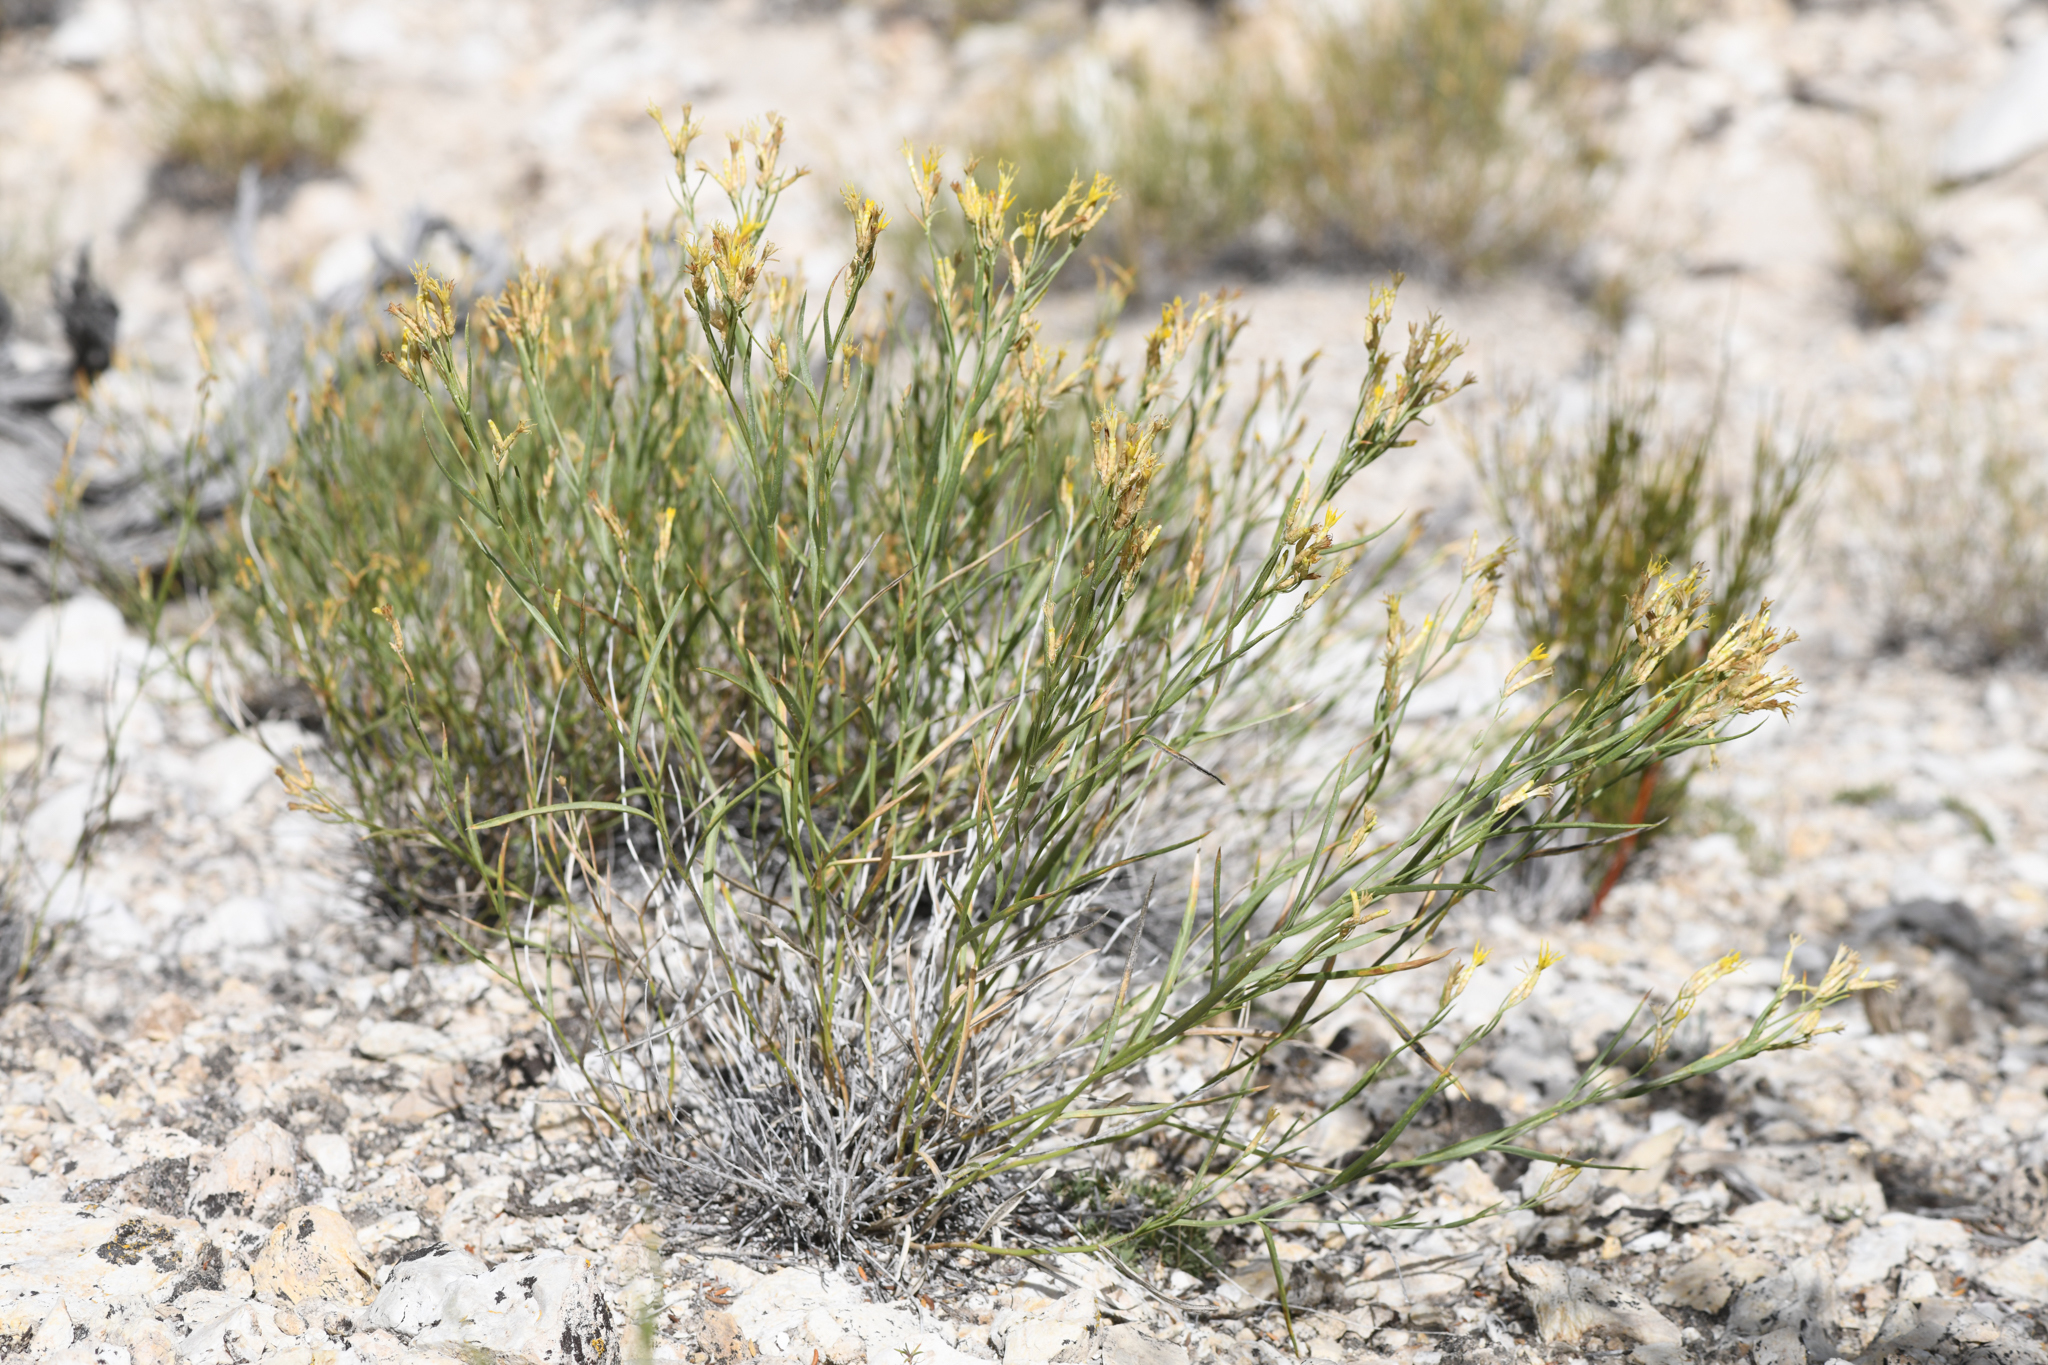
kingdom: Plantae
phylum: Tracheophyta
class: Magnoliopsida
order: Asterales
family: Asteraceae
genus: Cuniculotinus
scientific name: Cuniculotinus gramineus
